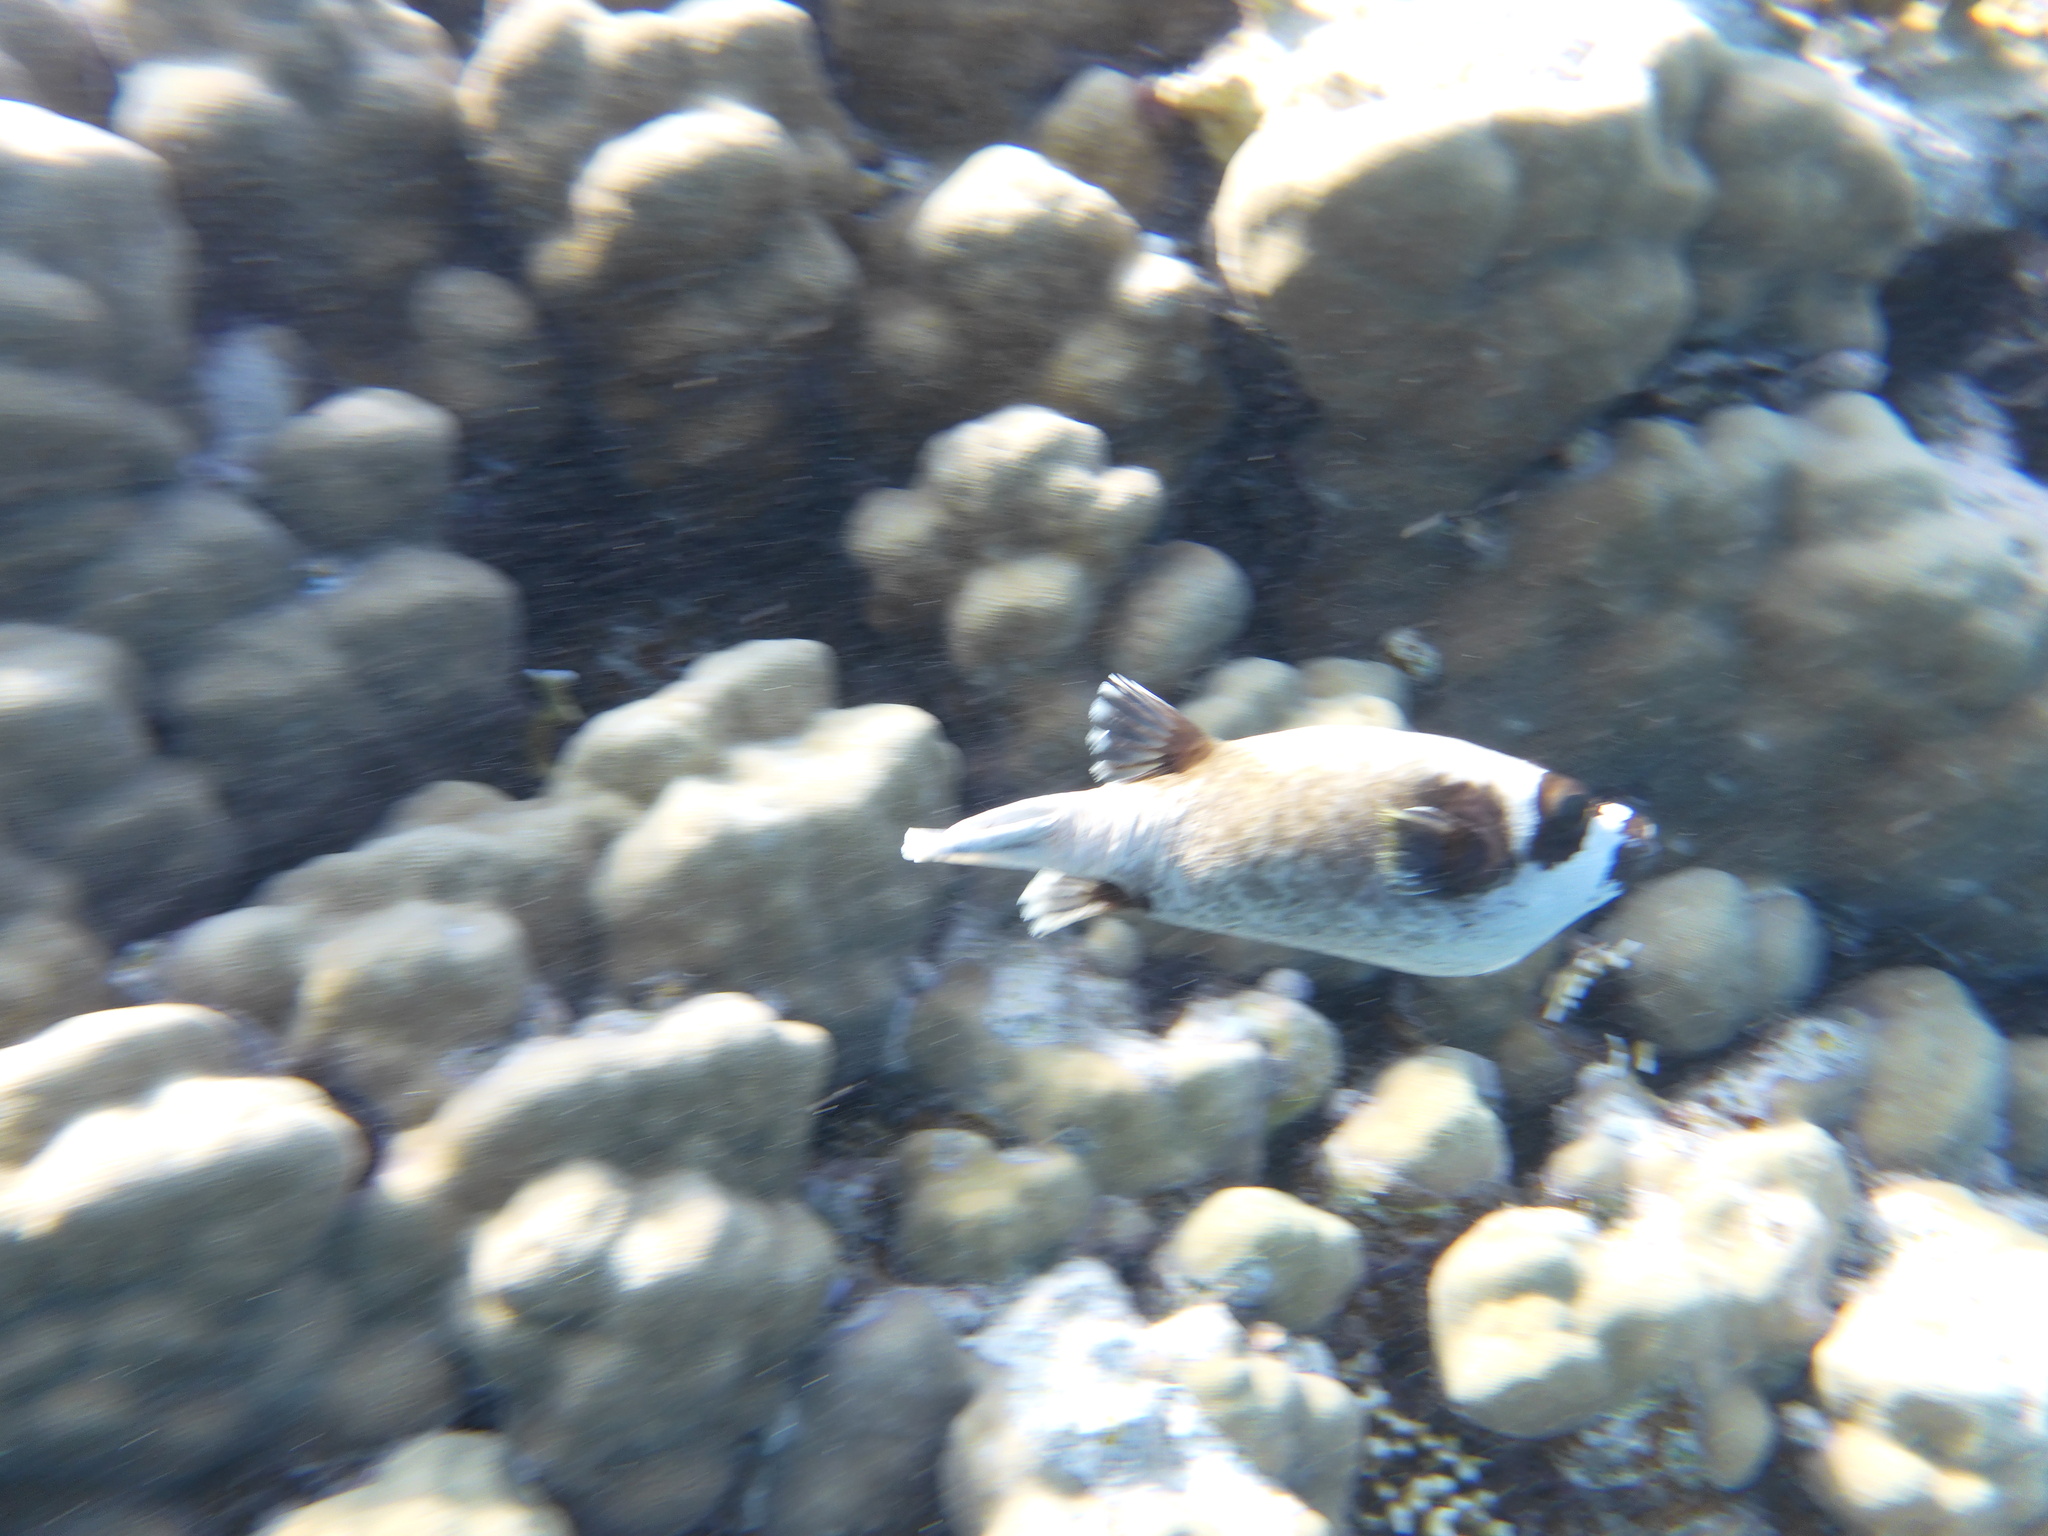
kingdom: Animalia
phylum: Chordata
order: Tetraodontiformes
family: Tetraodontidae
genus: Arothron
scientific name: Arothron diadematus
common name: Masked puffer
